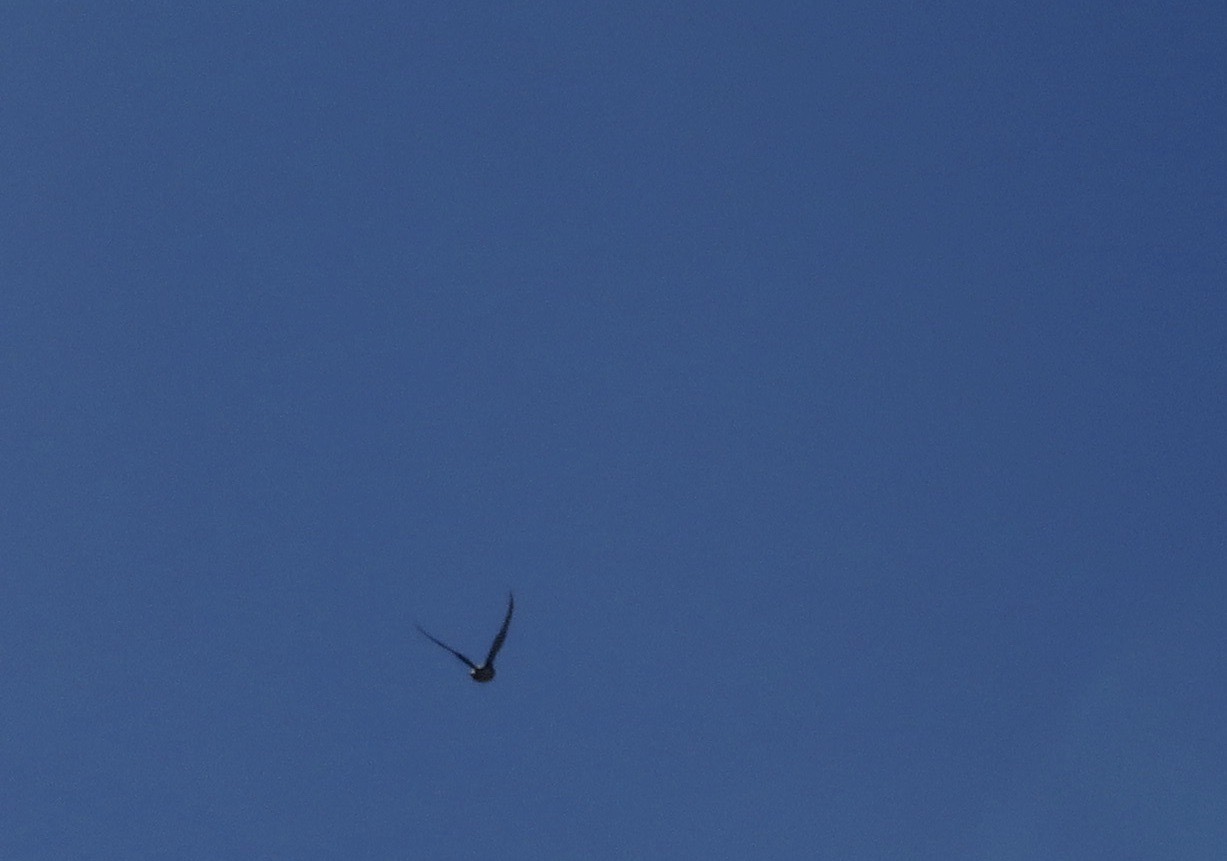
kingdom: Animalia
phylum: Chordata
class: Aves
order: Falconiformes
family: Falconidae
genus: Falco
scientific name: Falco sparverius
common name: American kestrel
